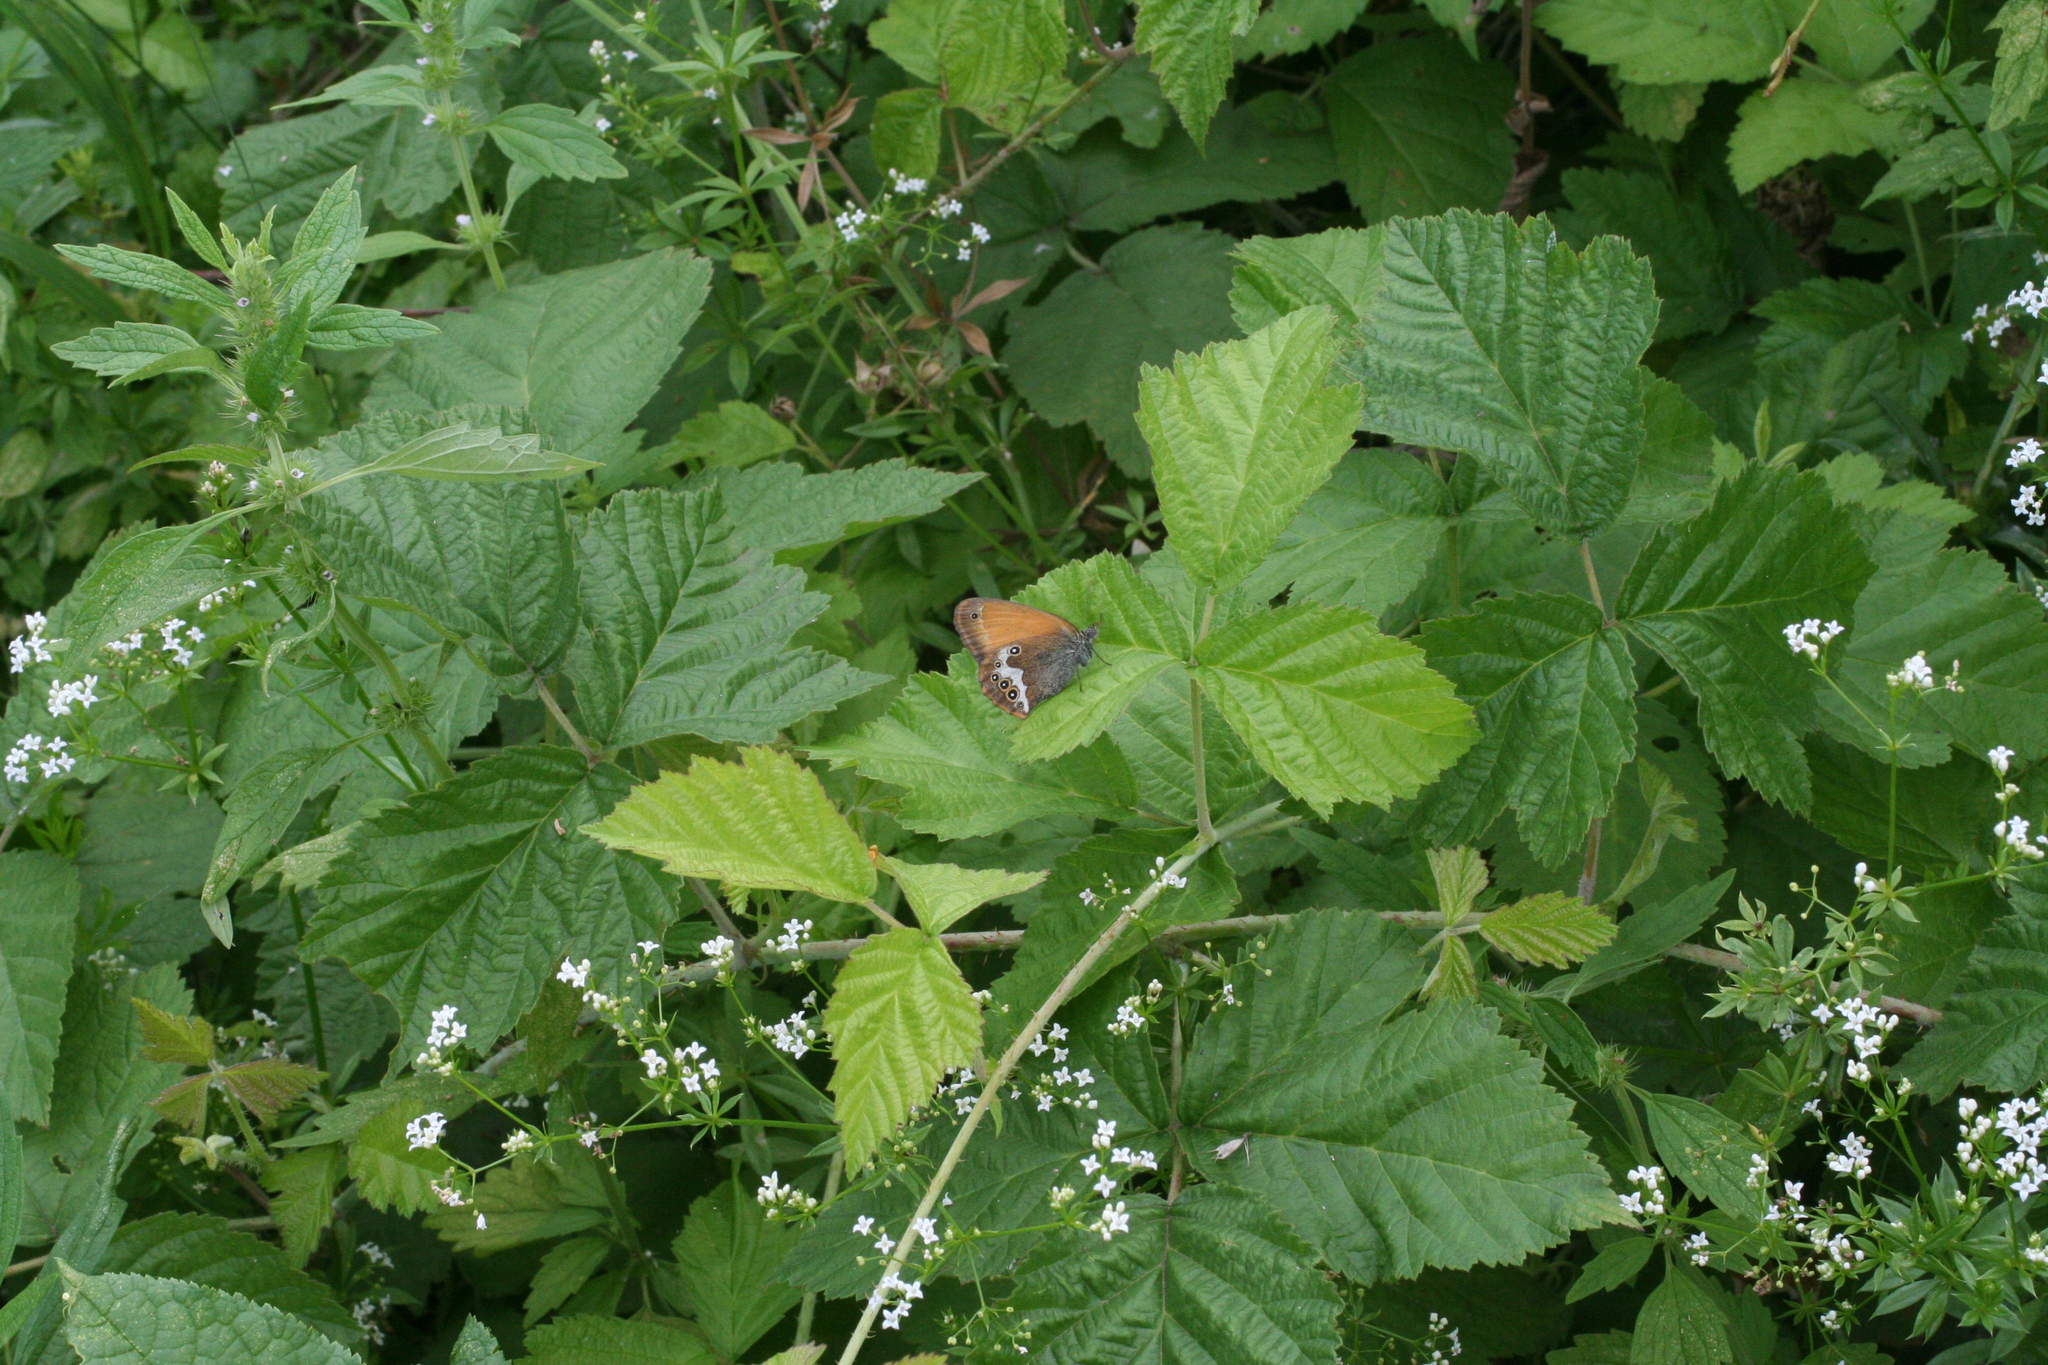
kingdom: Animalia
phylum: Arthropoda
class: Insecta
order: Lepidoptera
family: Nymphalidae
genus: Coenonympha
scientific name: Coenonympha arcania
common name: Pearly heath
